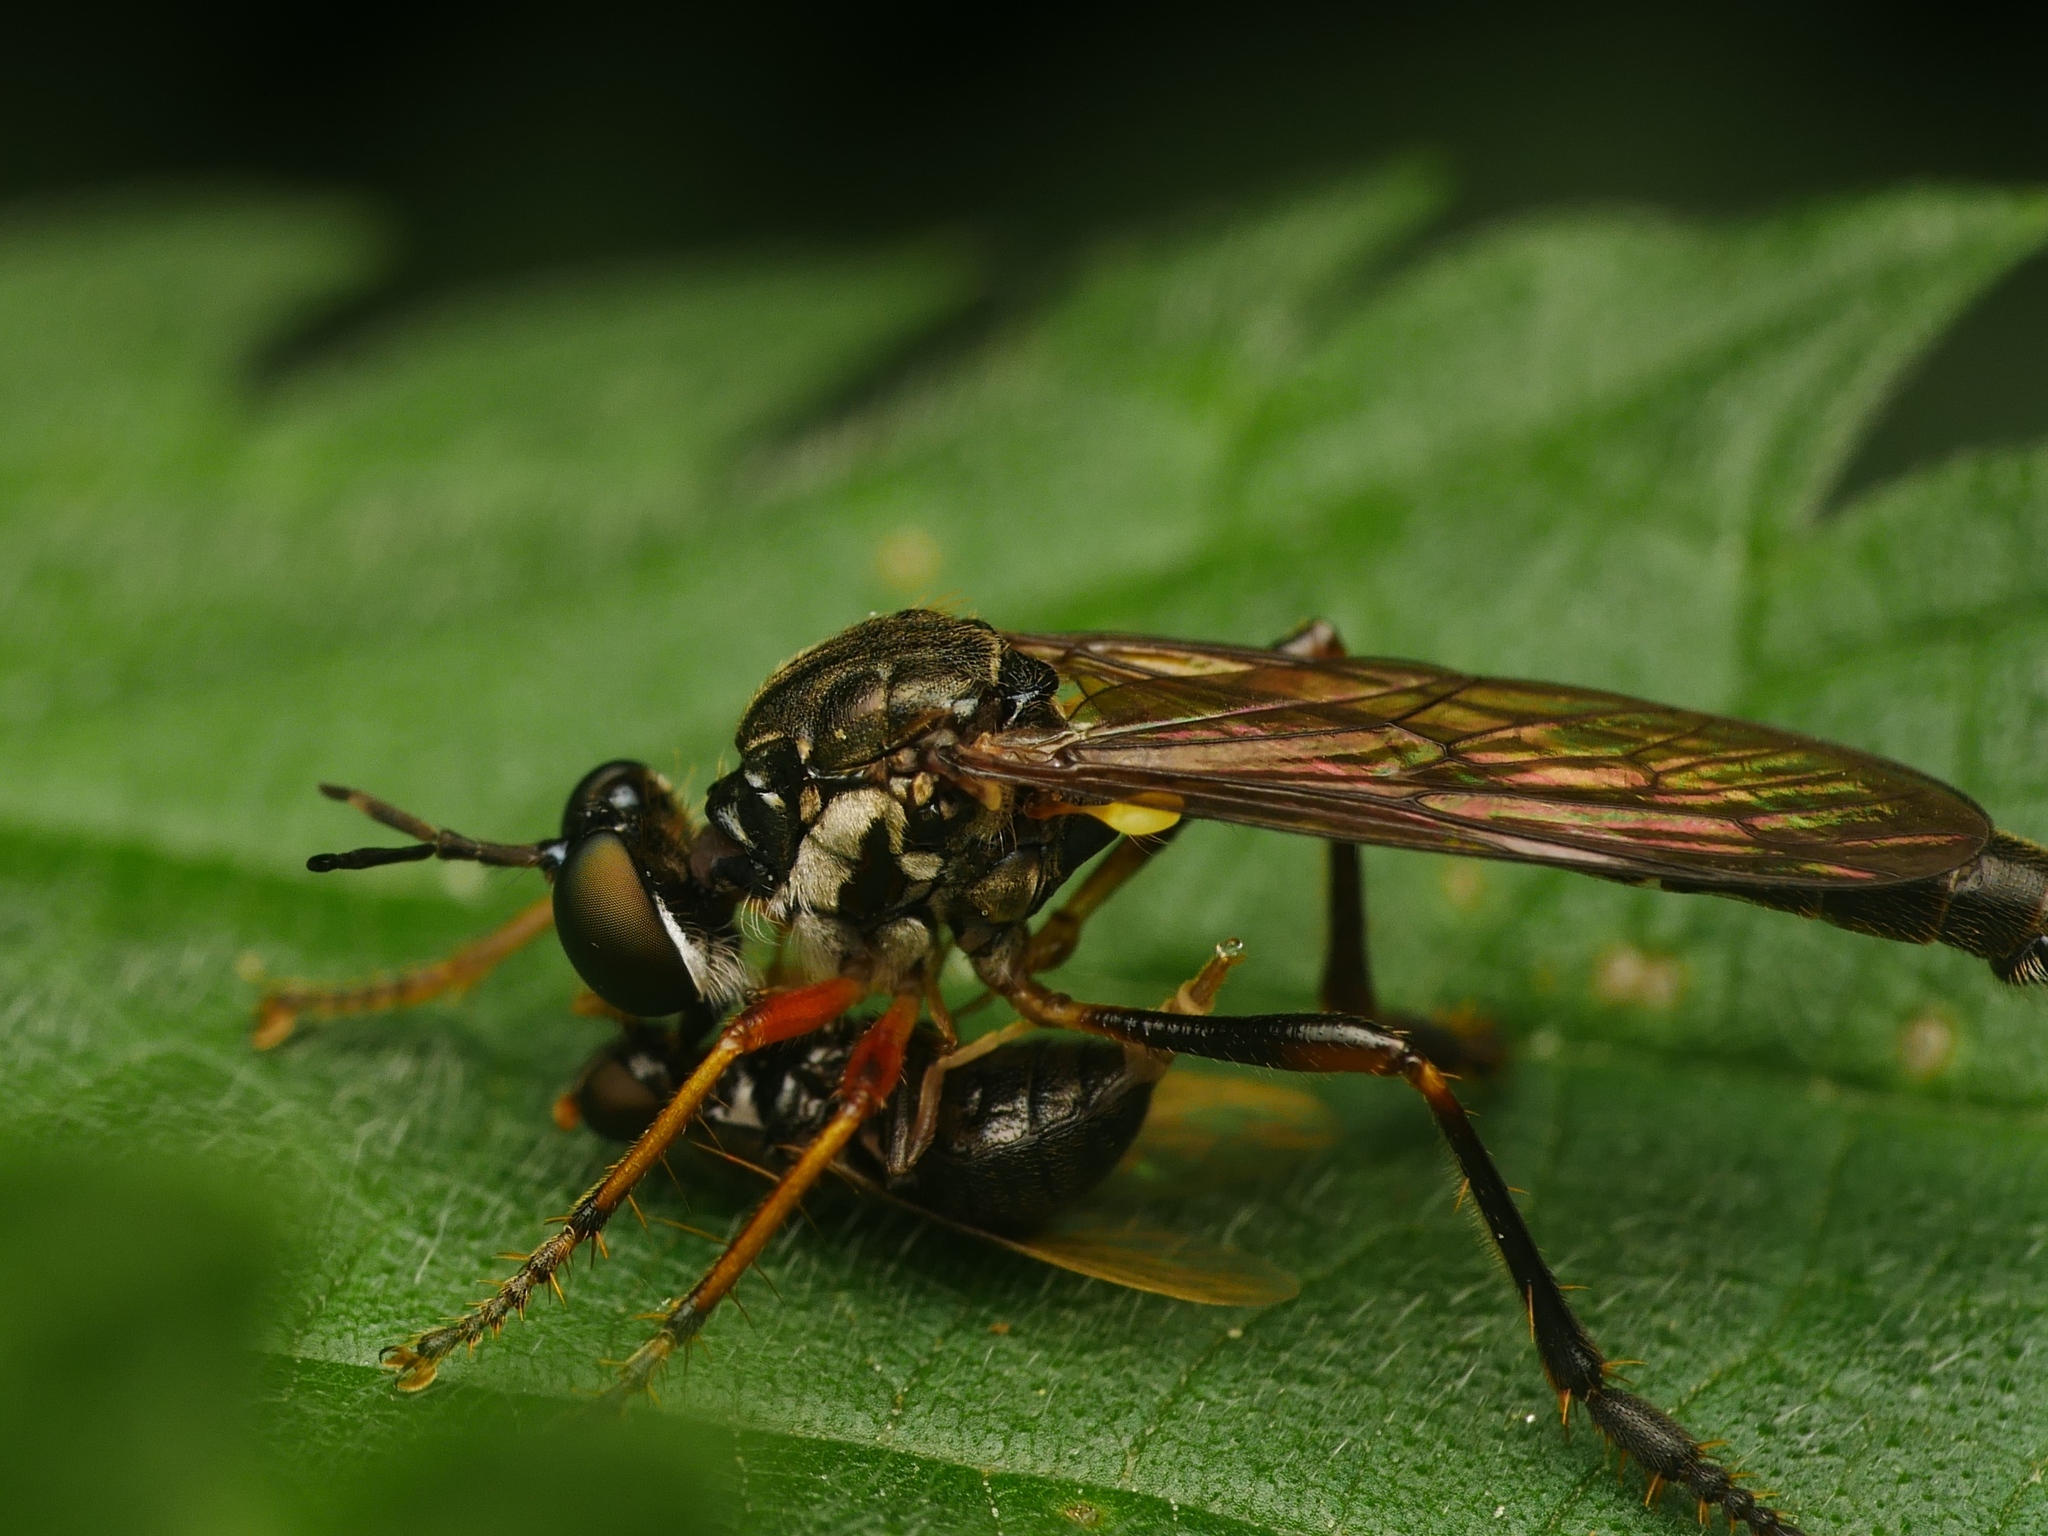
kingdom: Animalia
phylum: Arthropoda
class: Insecta
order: Diptera
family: Asilidae
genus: Dioctria
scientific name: Dioctria hyalipennis
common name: Stripe-legged robberfly
